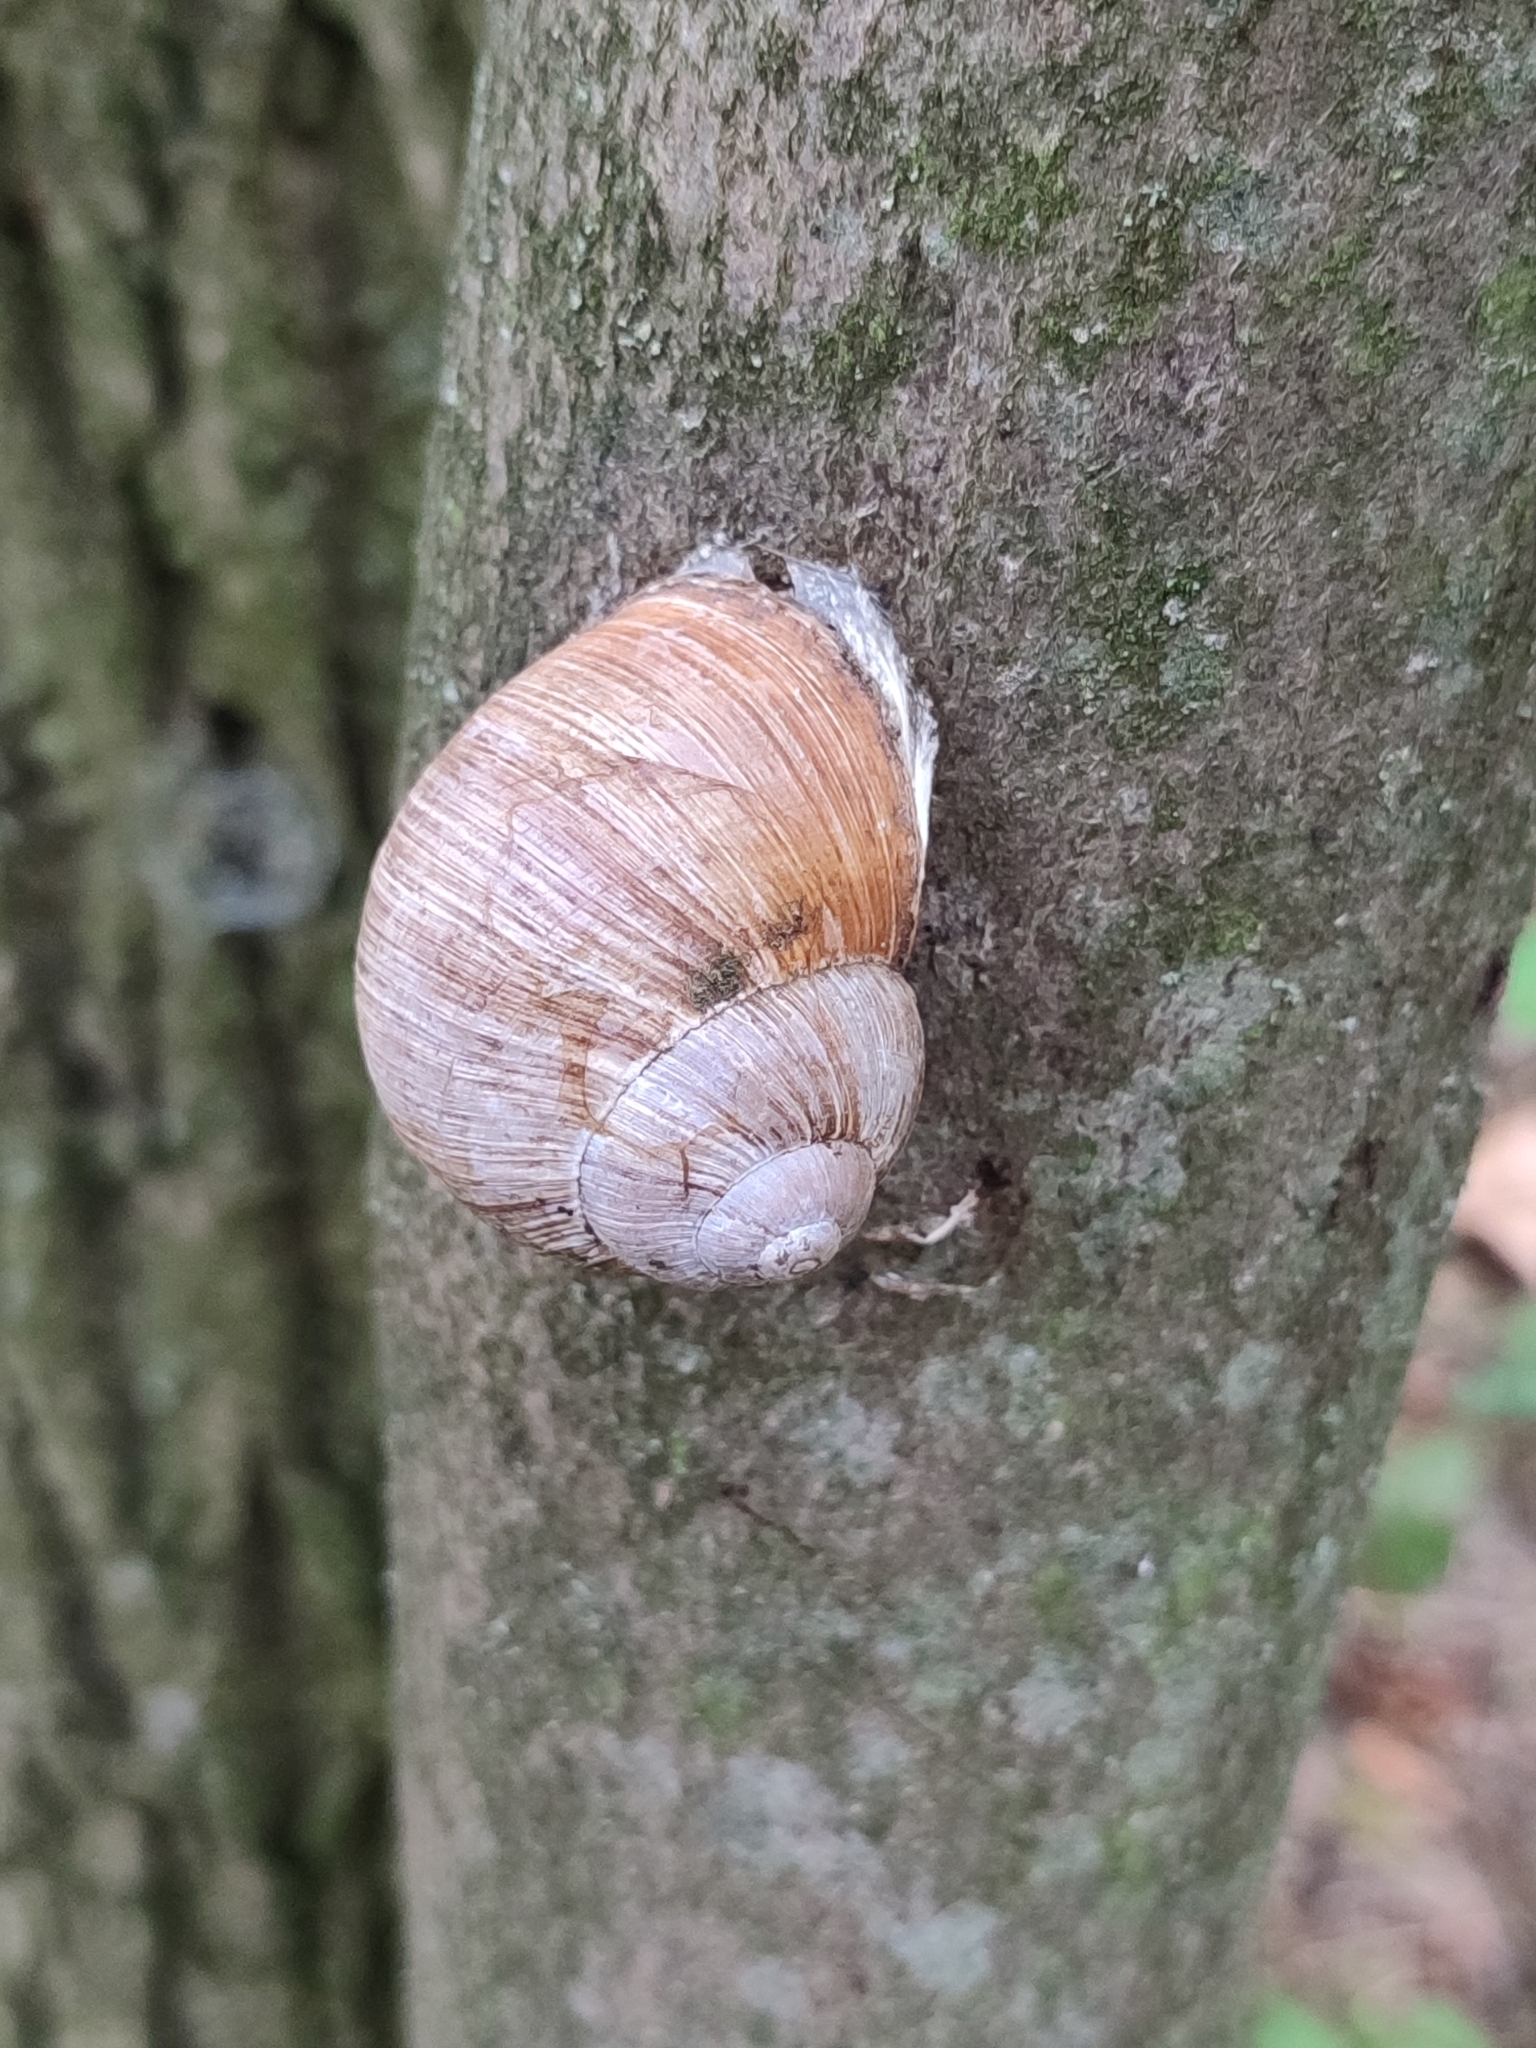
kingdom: Animalia
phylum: Mollusca
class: Gastropoda
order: Stylommatophora
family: Helicidae
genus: Helix
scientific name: Helix pomatia
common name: Roman snail
